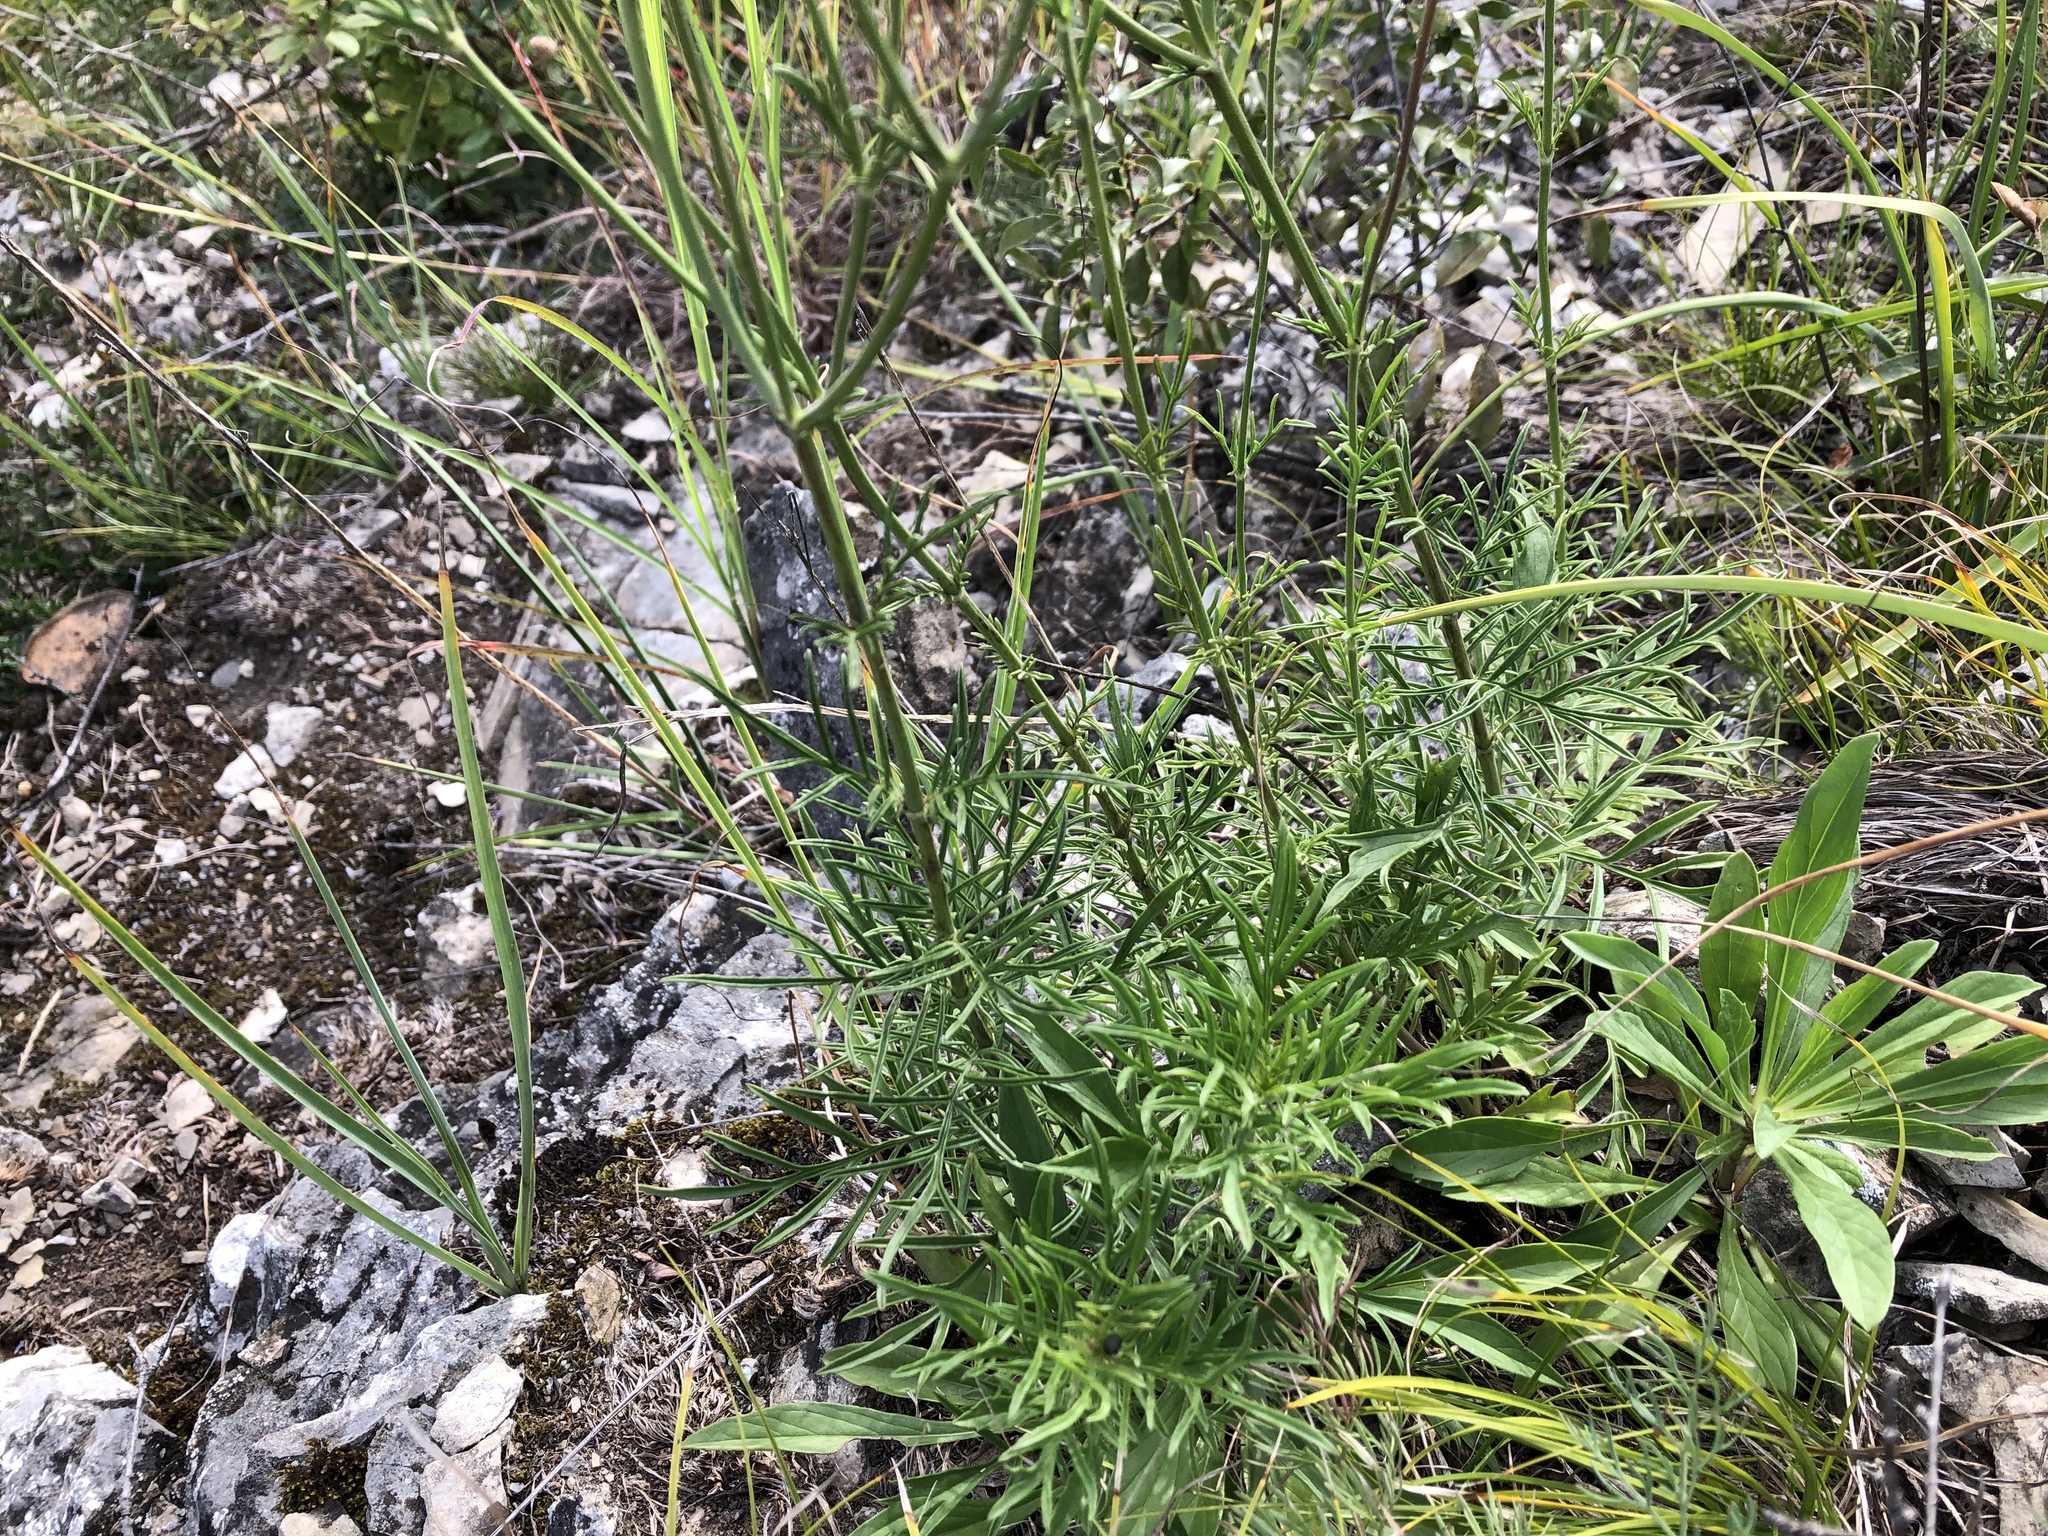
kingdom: Plantae
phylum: Tracheophyta
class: Magnoliopsida
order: Dipsacales
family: Caprifoliaceae
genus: Scabiosa
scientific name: Scabiosa canescens
